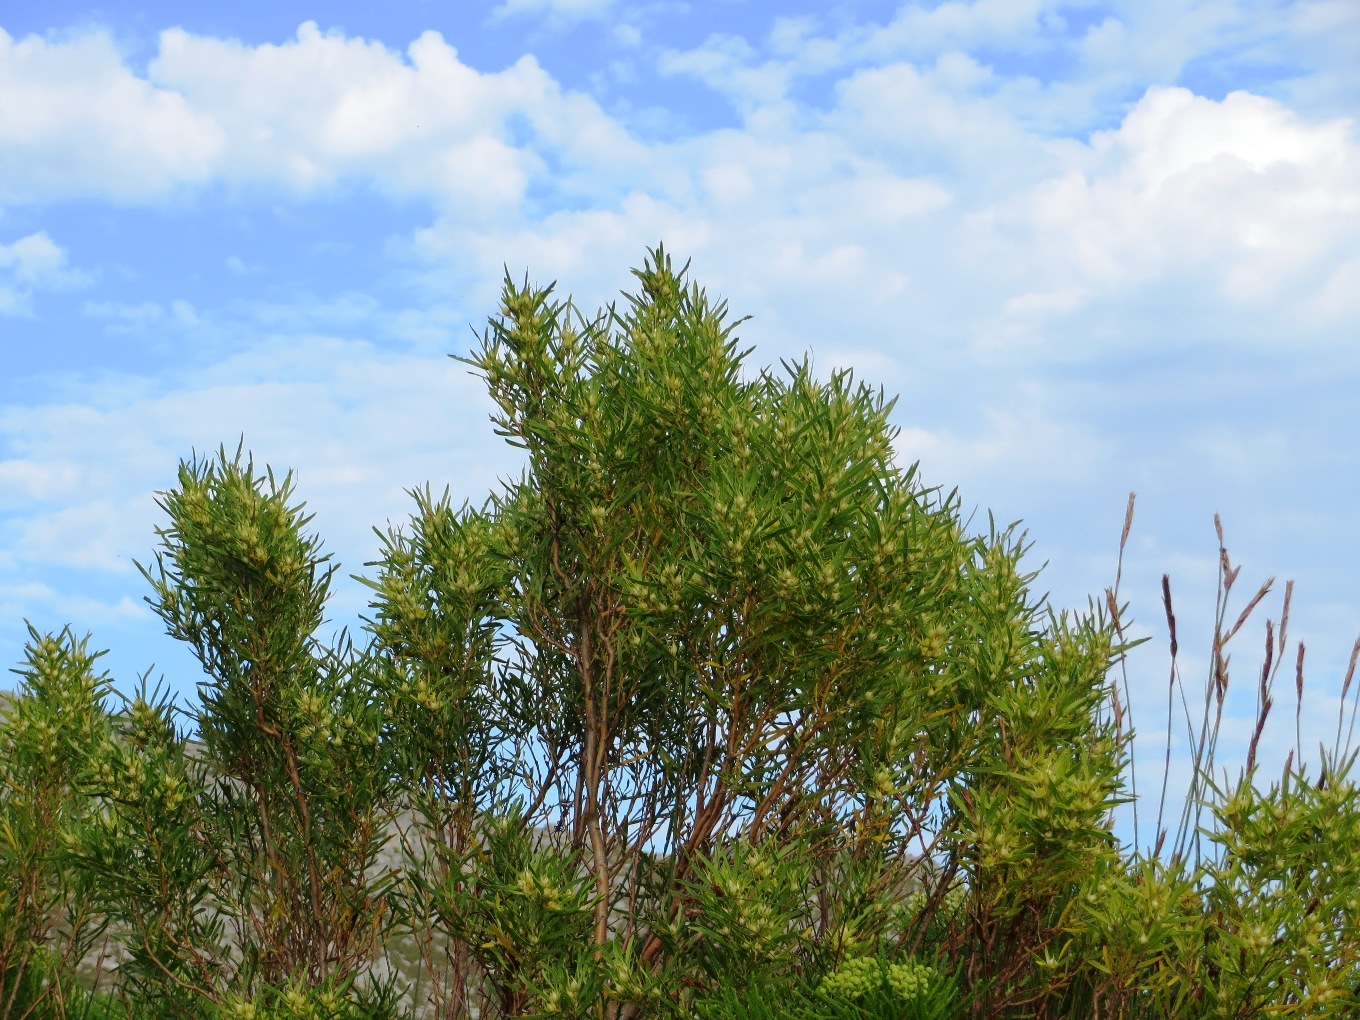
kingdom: Plantae
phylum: Tracheophyta
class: Magnoliopsida
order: Proteales
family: Proteaceae
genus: Leucadendron
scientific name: Leucadendron salicifolium
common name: Common stream conebush
